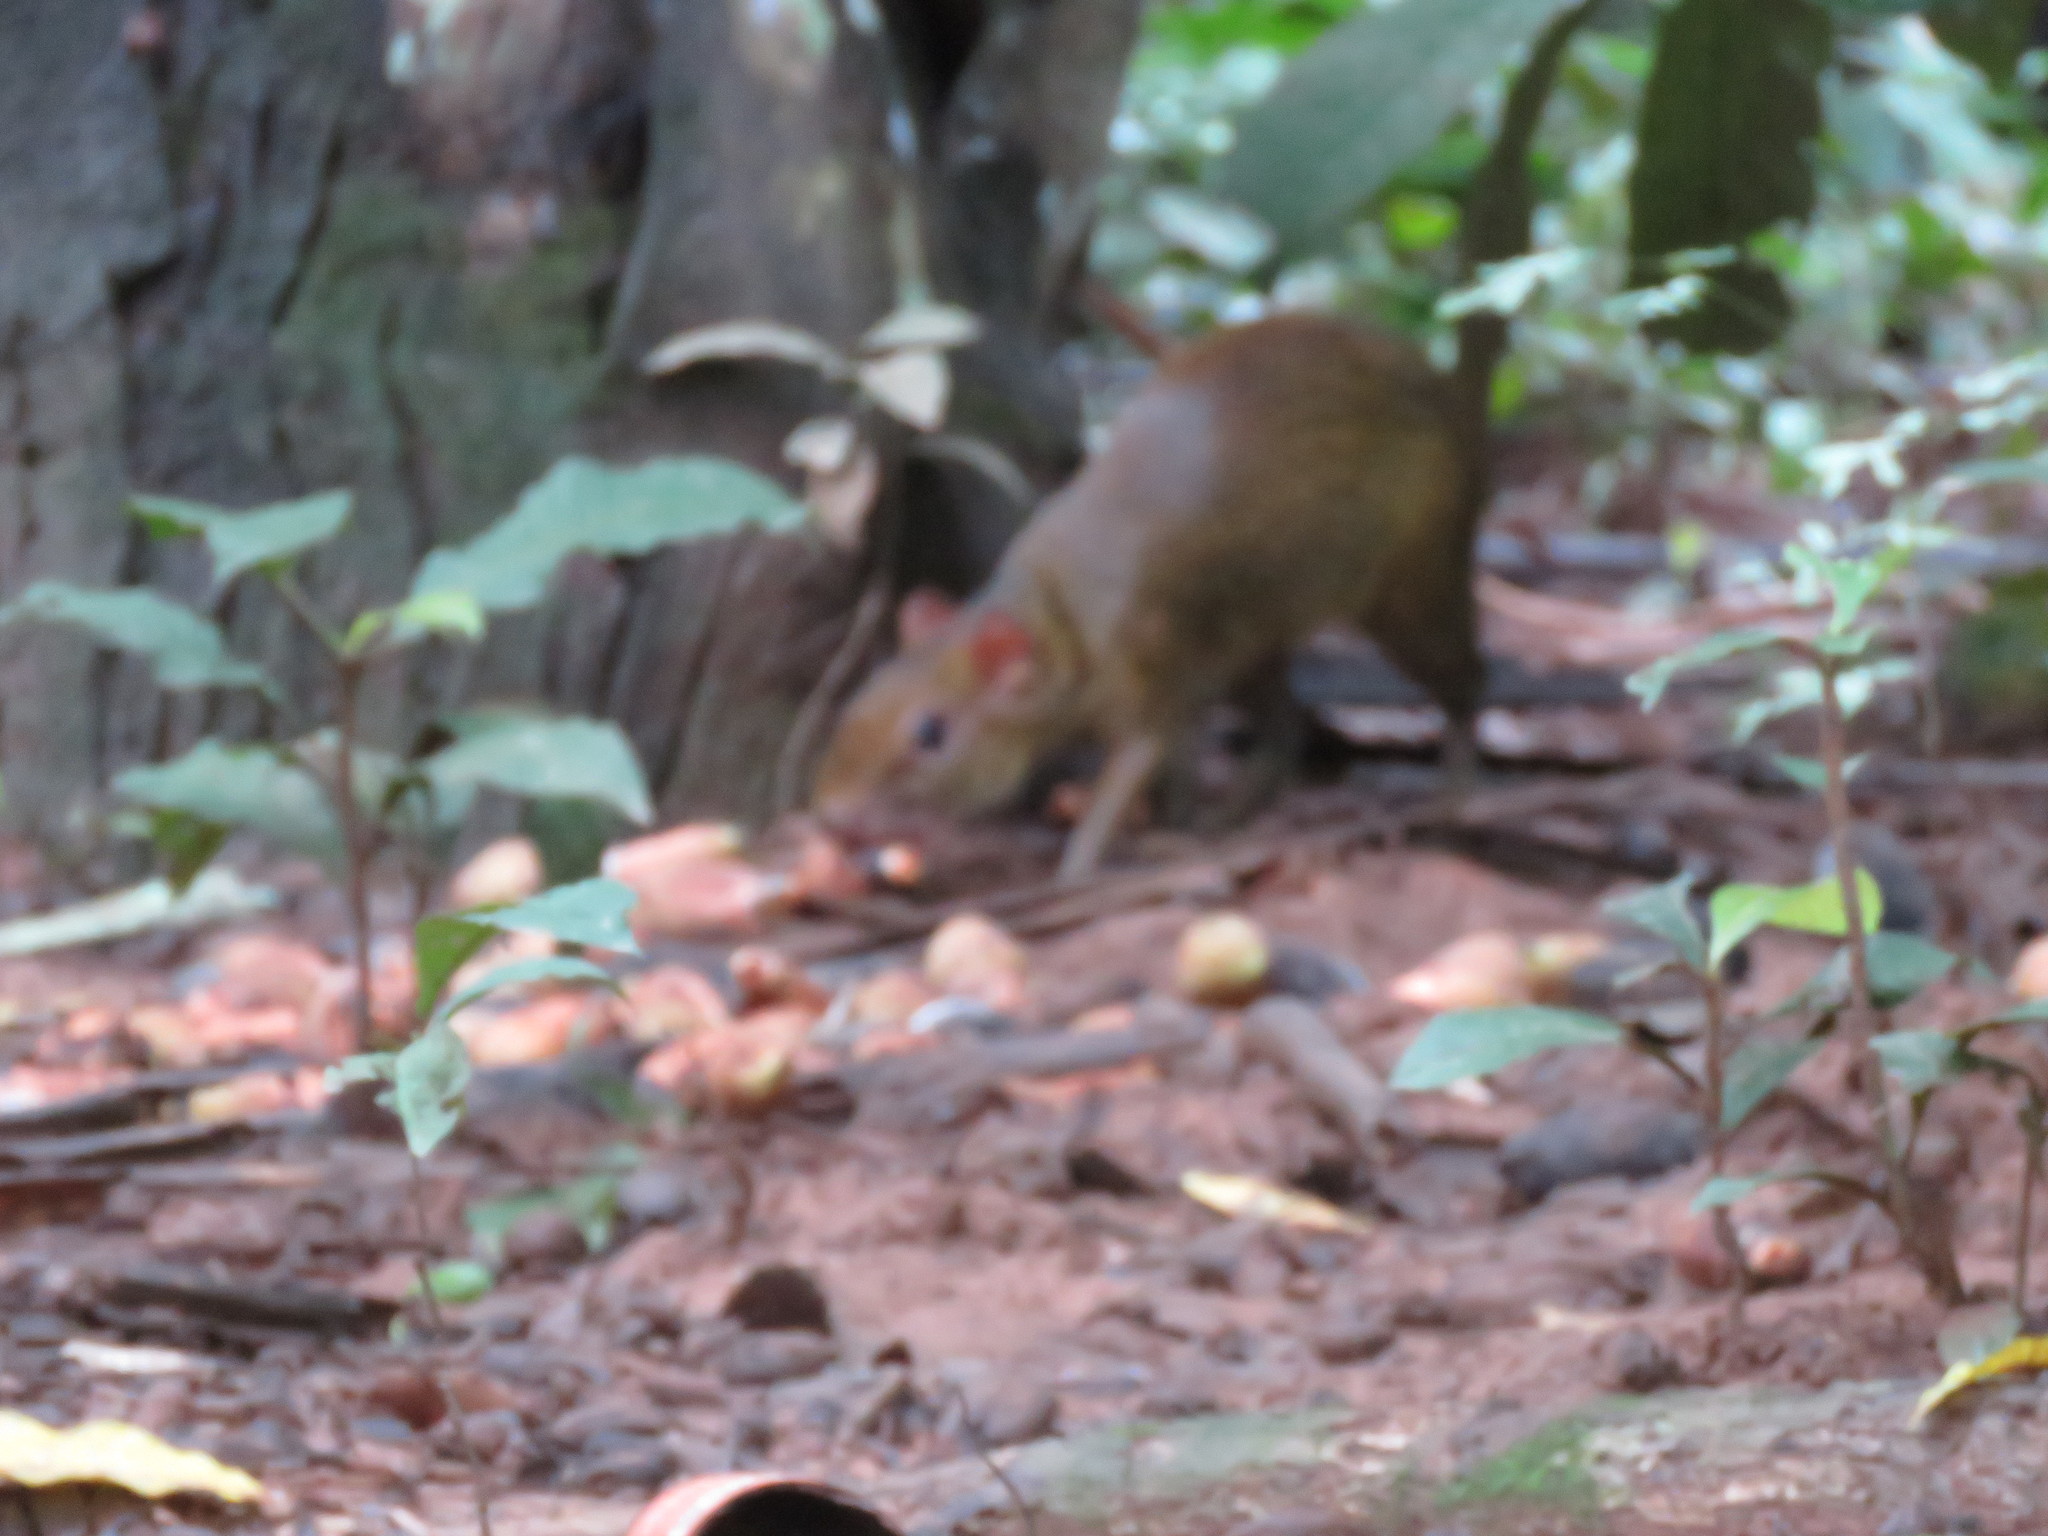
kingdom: Animalia
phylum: Chordata
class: Mammalia
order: Rodentia
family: Dasyproctidae
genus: Dasyprocta
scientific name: Dasyprocta variegata
